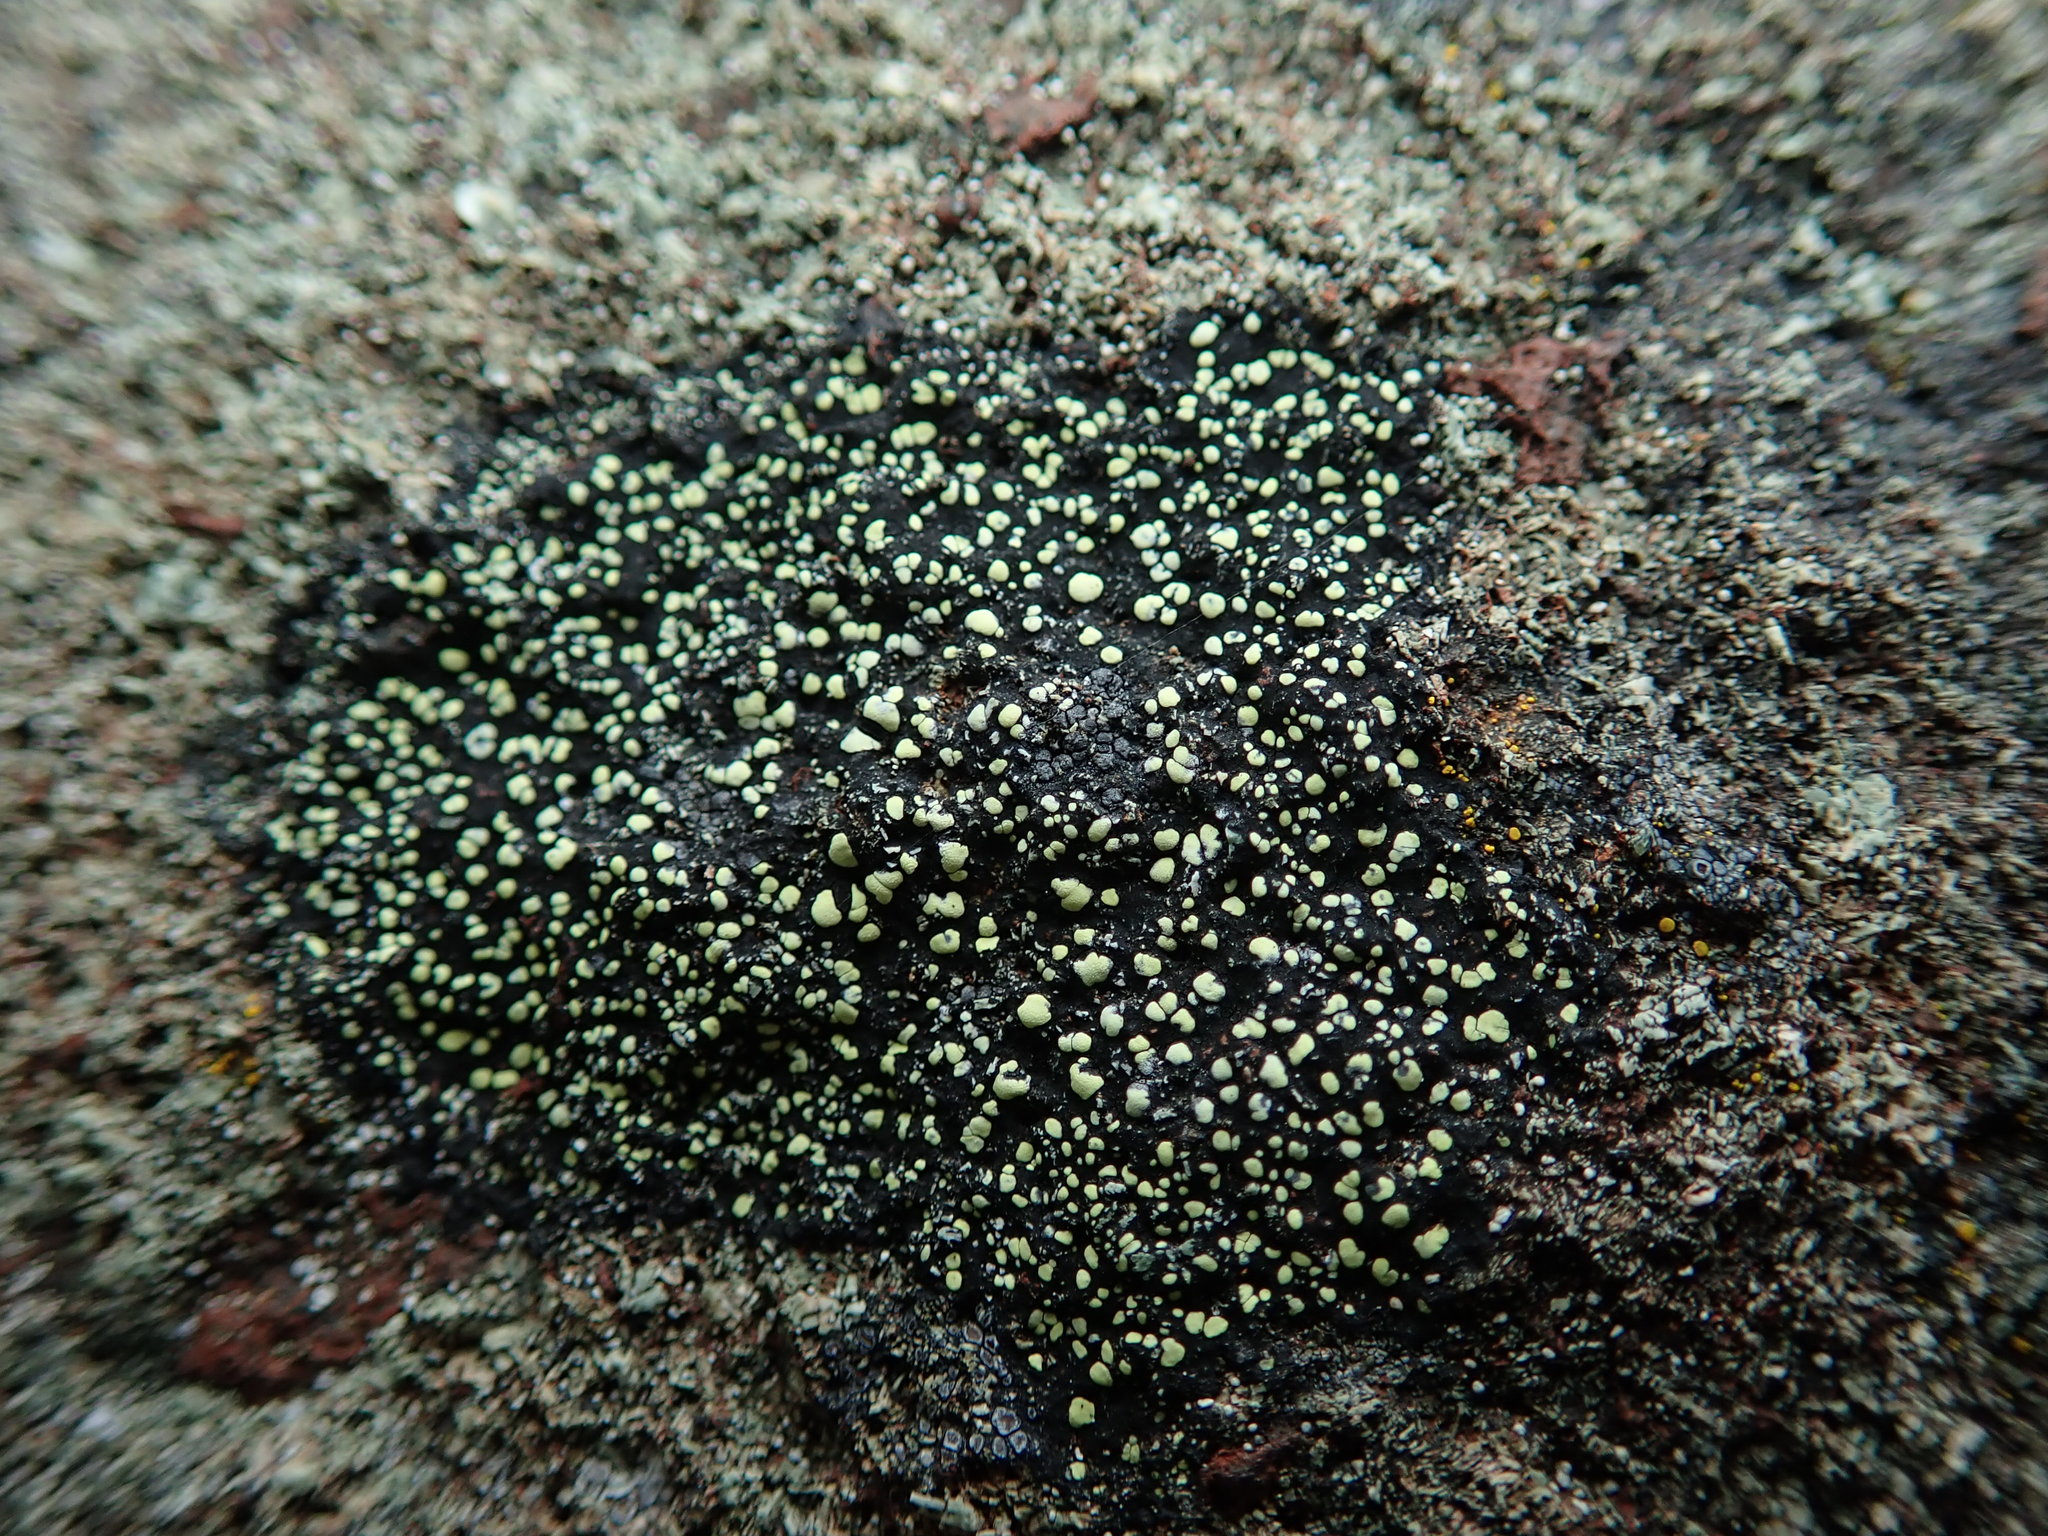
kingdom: Fungi
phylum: Ascomycota
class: Lecanoromycetes
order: Rhizocarpales
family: Rhizocarpaceae
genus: Rhizocarpon
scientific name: Rhizocarpon geographicum
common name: Yellow map lichen
